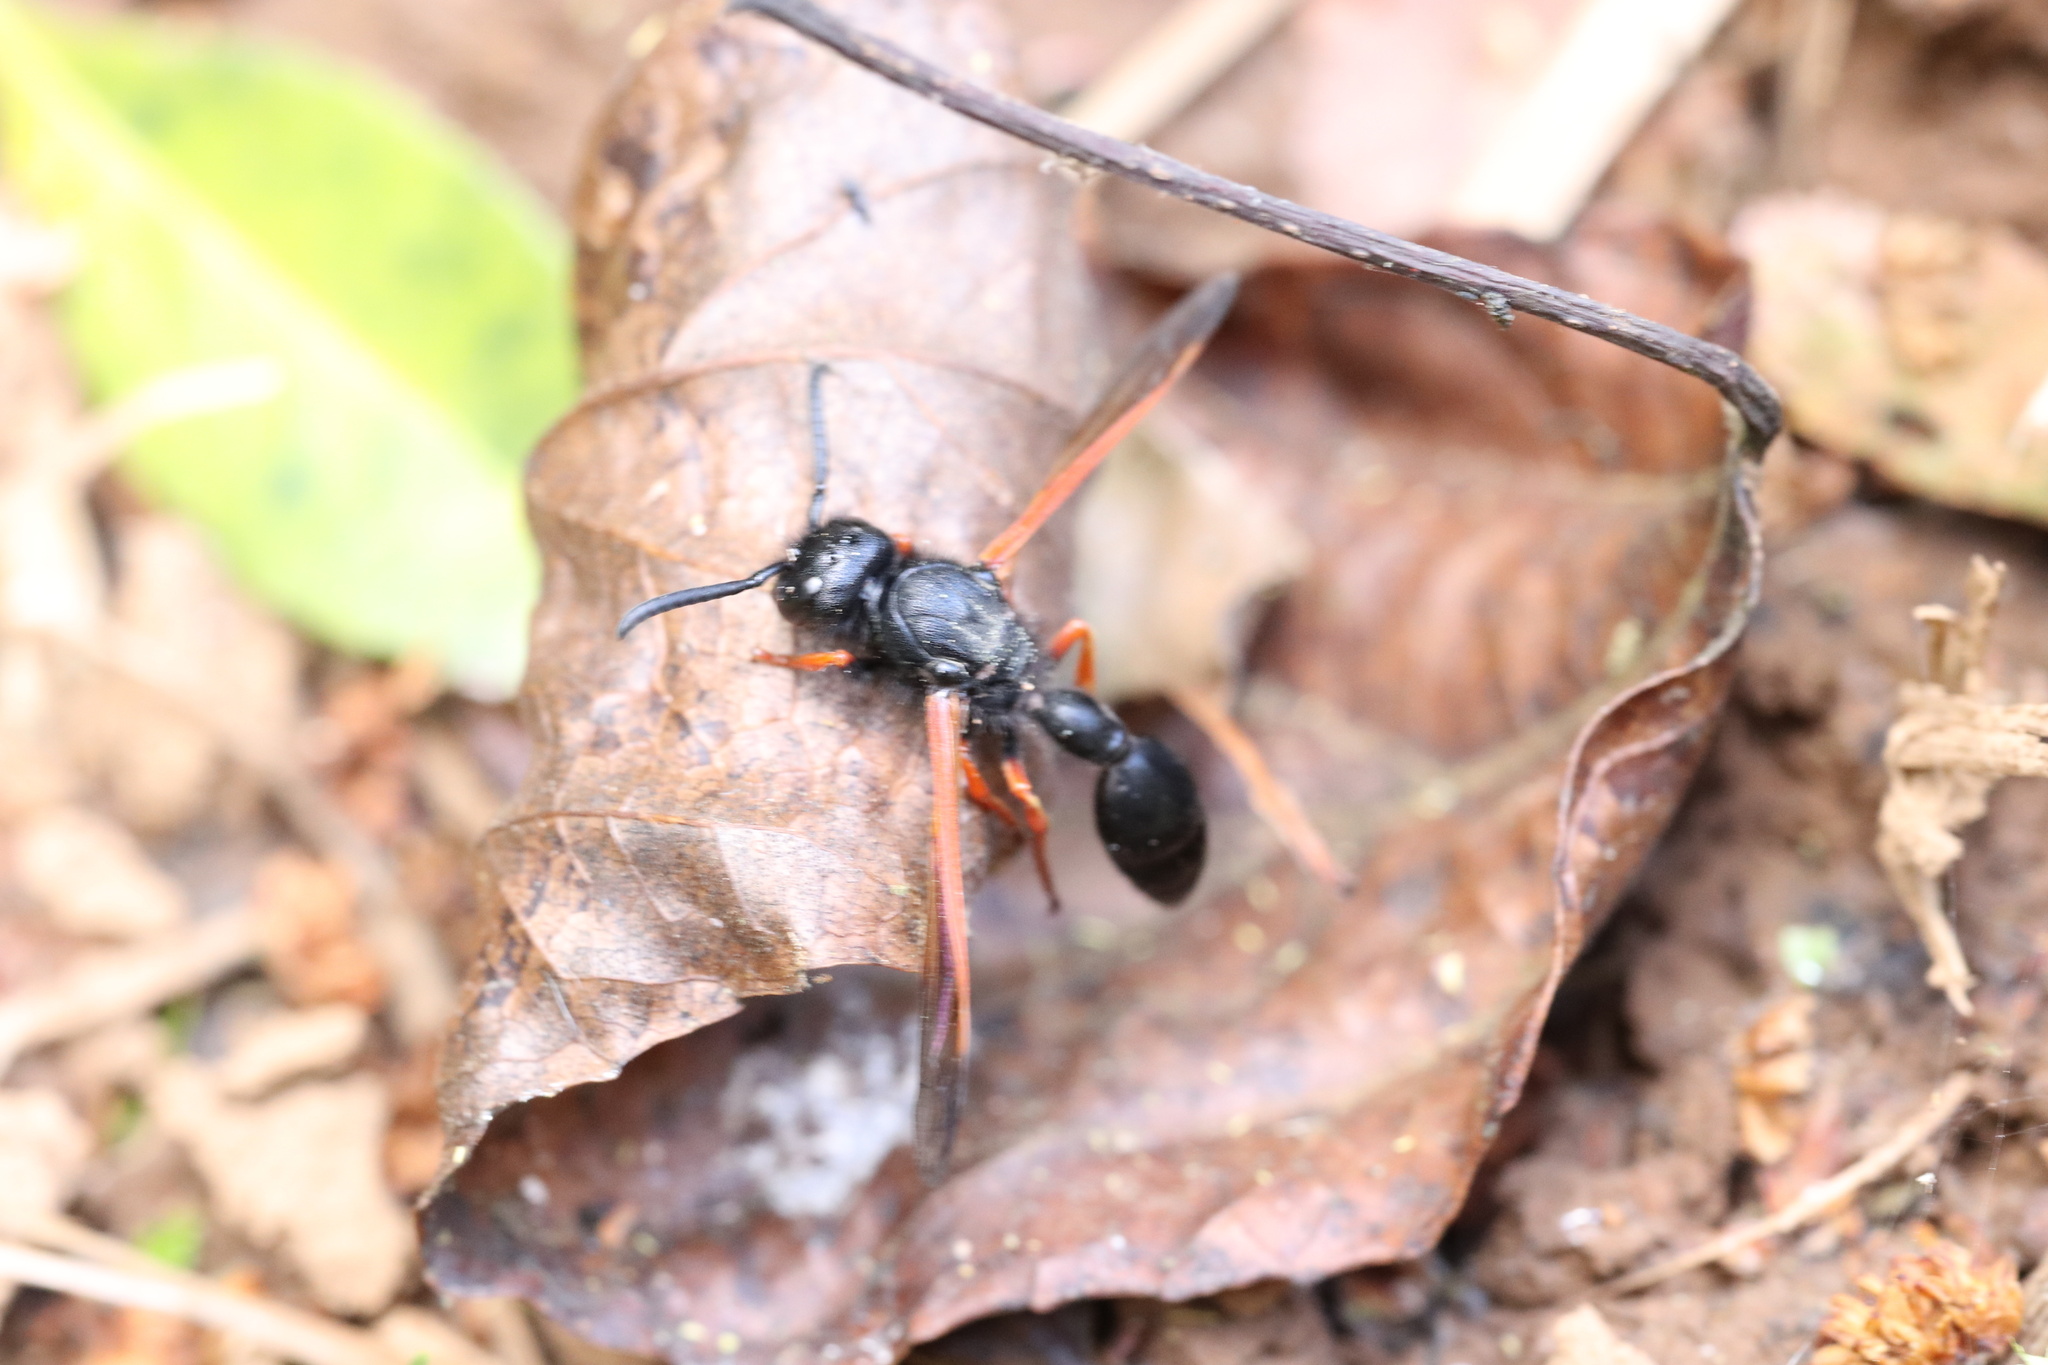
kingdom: Animalia
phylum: Arthropoda
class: Insecta
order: Hymenoptera
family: Eumenidae
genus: Protodiscoelius
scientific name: Protodiscoelius merula
